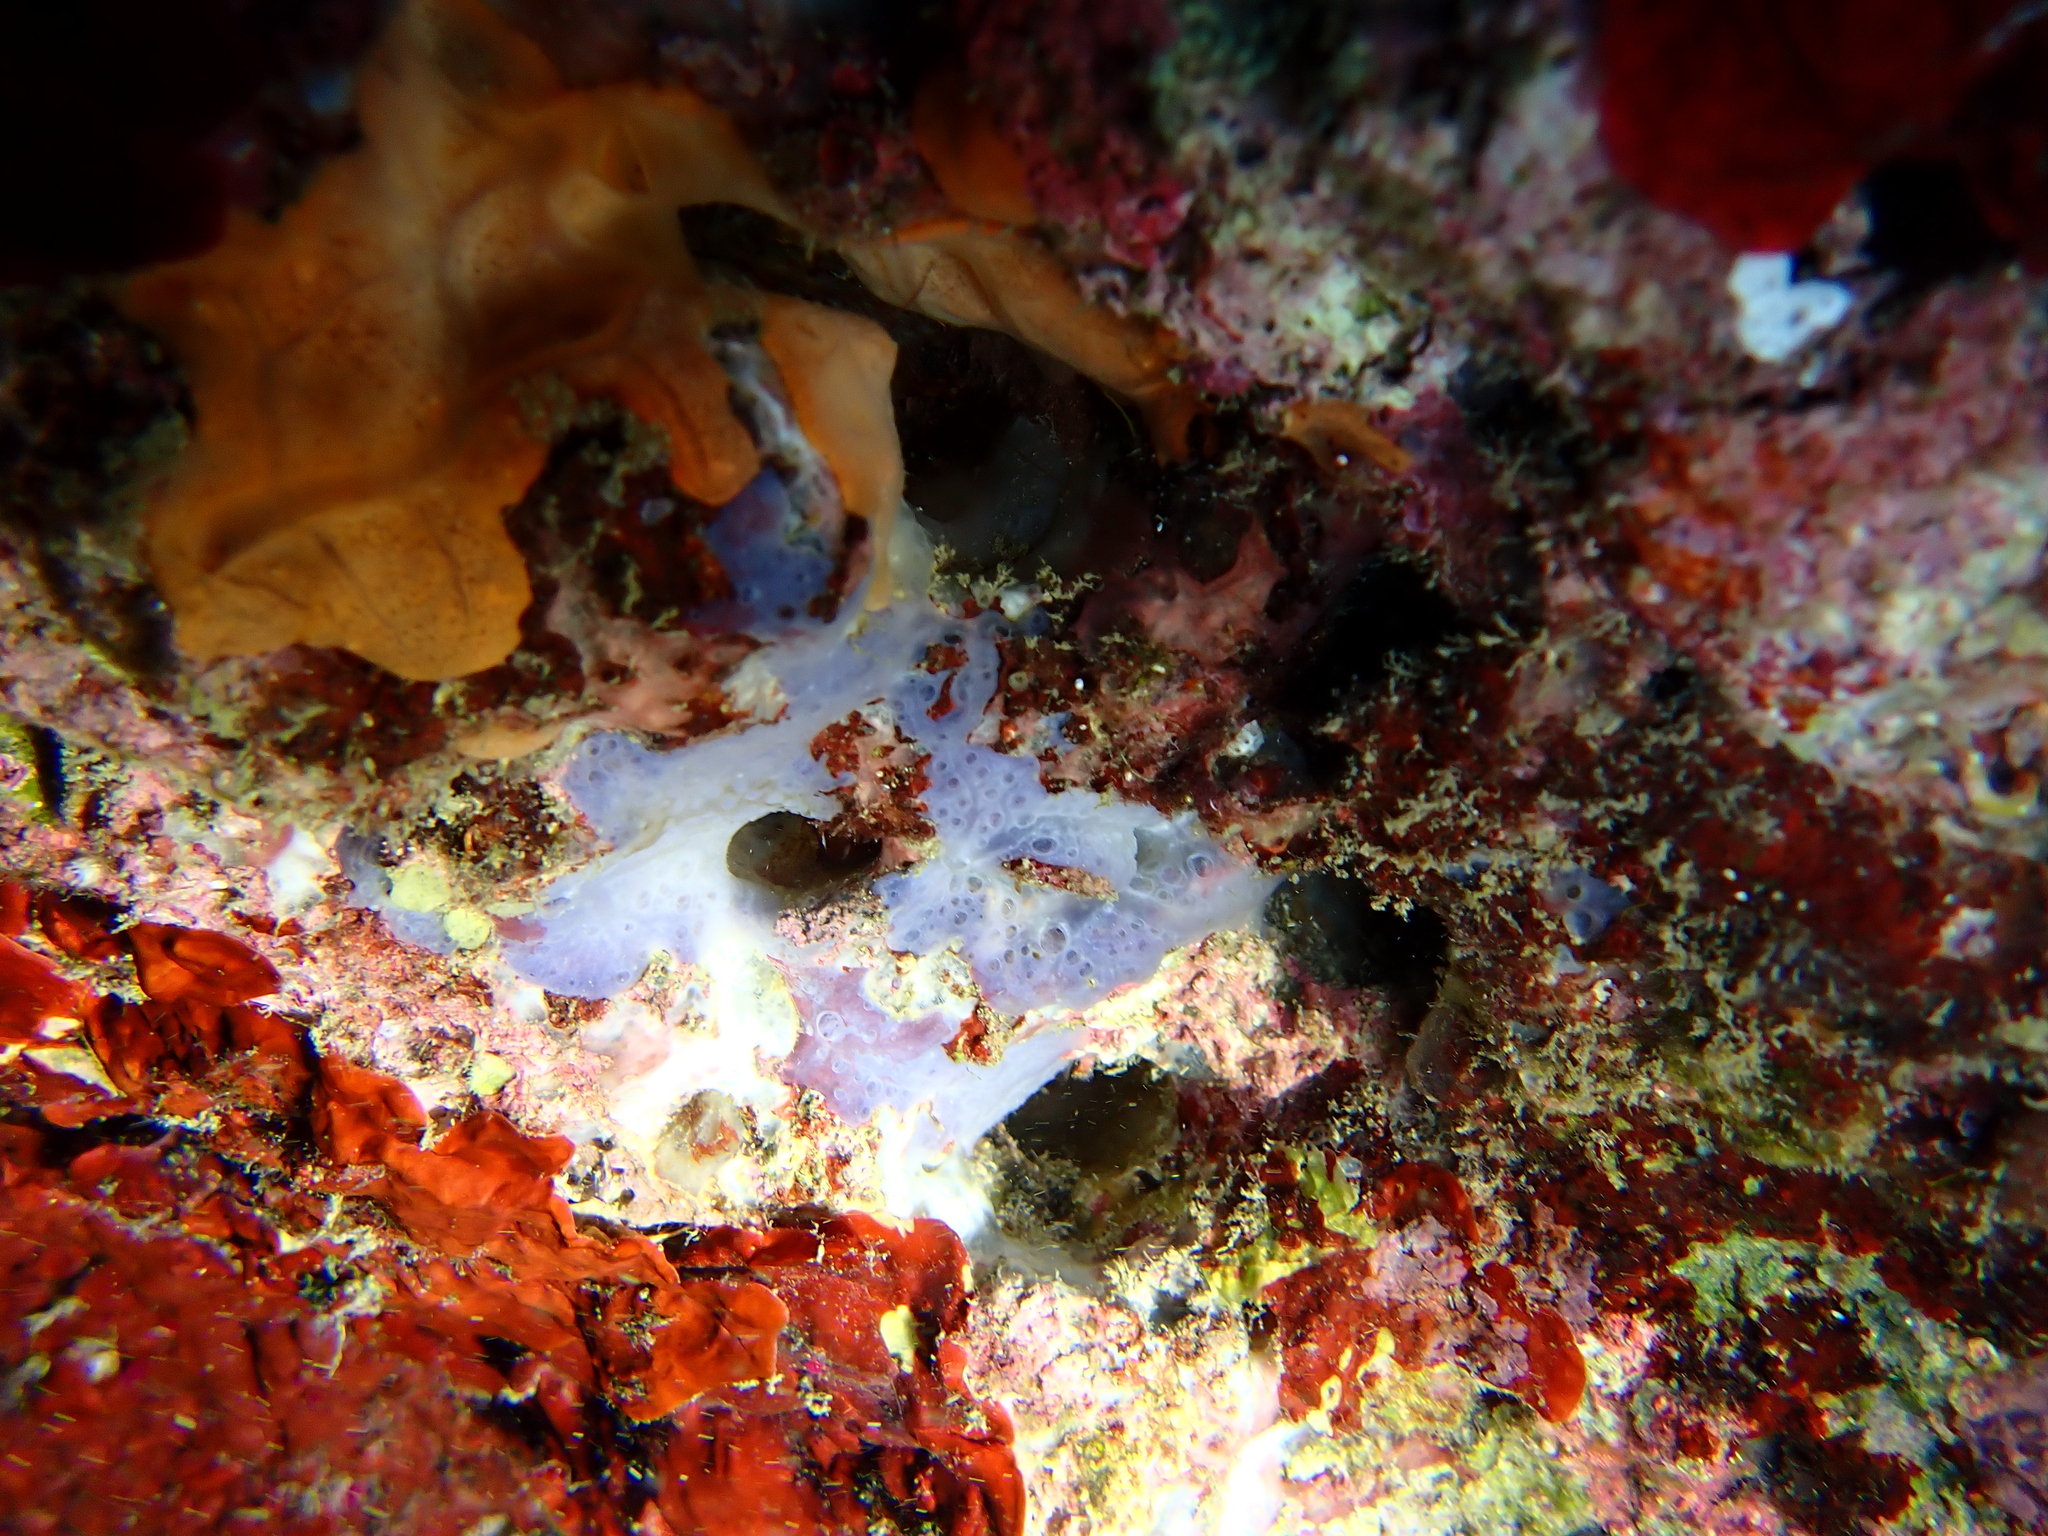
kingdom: Animalia
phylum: Porifera
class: Demospongiae
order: Poecilosclerida
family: Hymedesmiidae
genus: Phorbas
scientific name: Phorbas tenacior
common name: Bluish encrusting sponge
